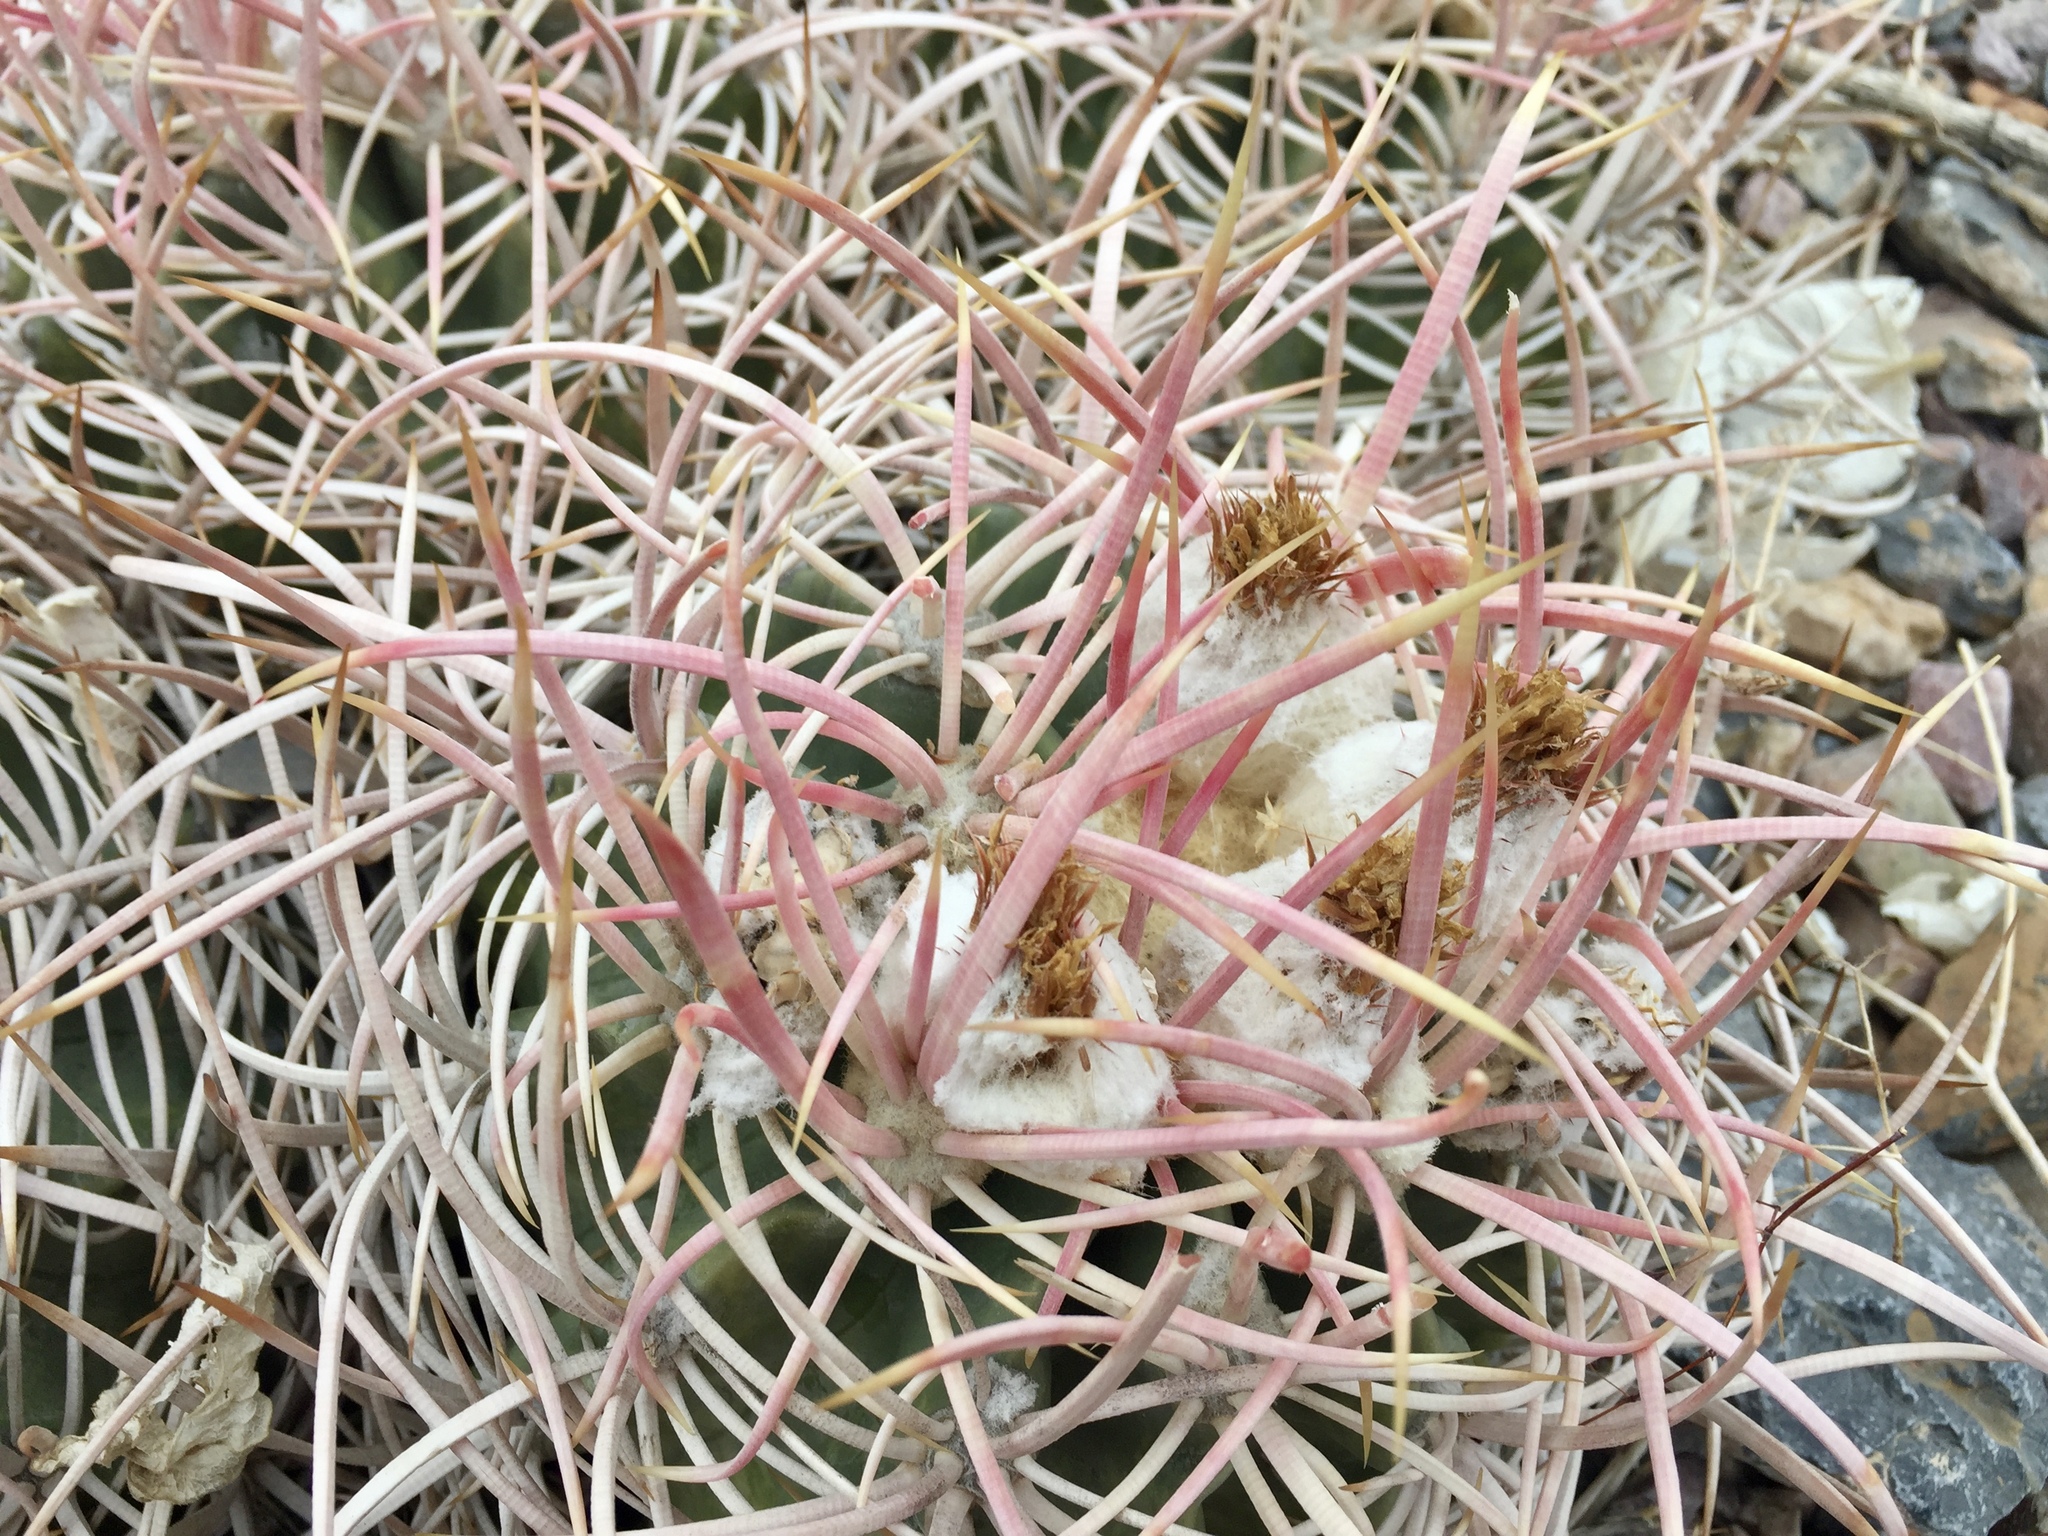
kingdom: Plantae
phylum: Tracheophyta
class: Magnoliopsida
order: Caryophyllales
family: Cactaceae
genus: Echinocactus
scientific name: Echinocactus polycephalus
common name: Cottontop cactus
